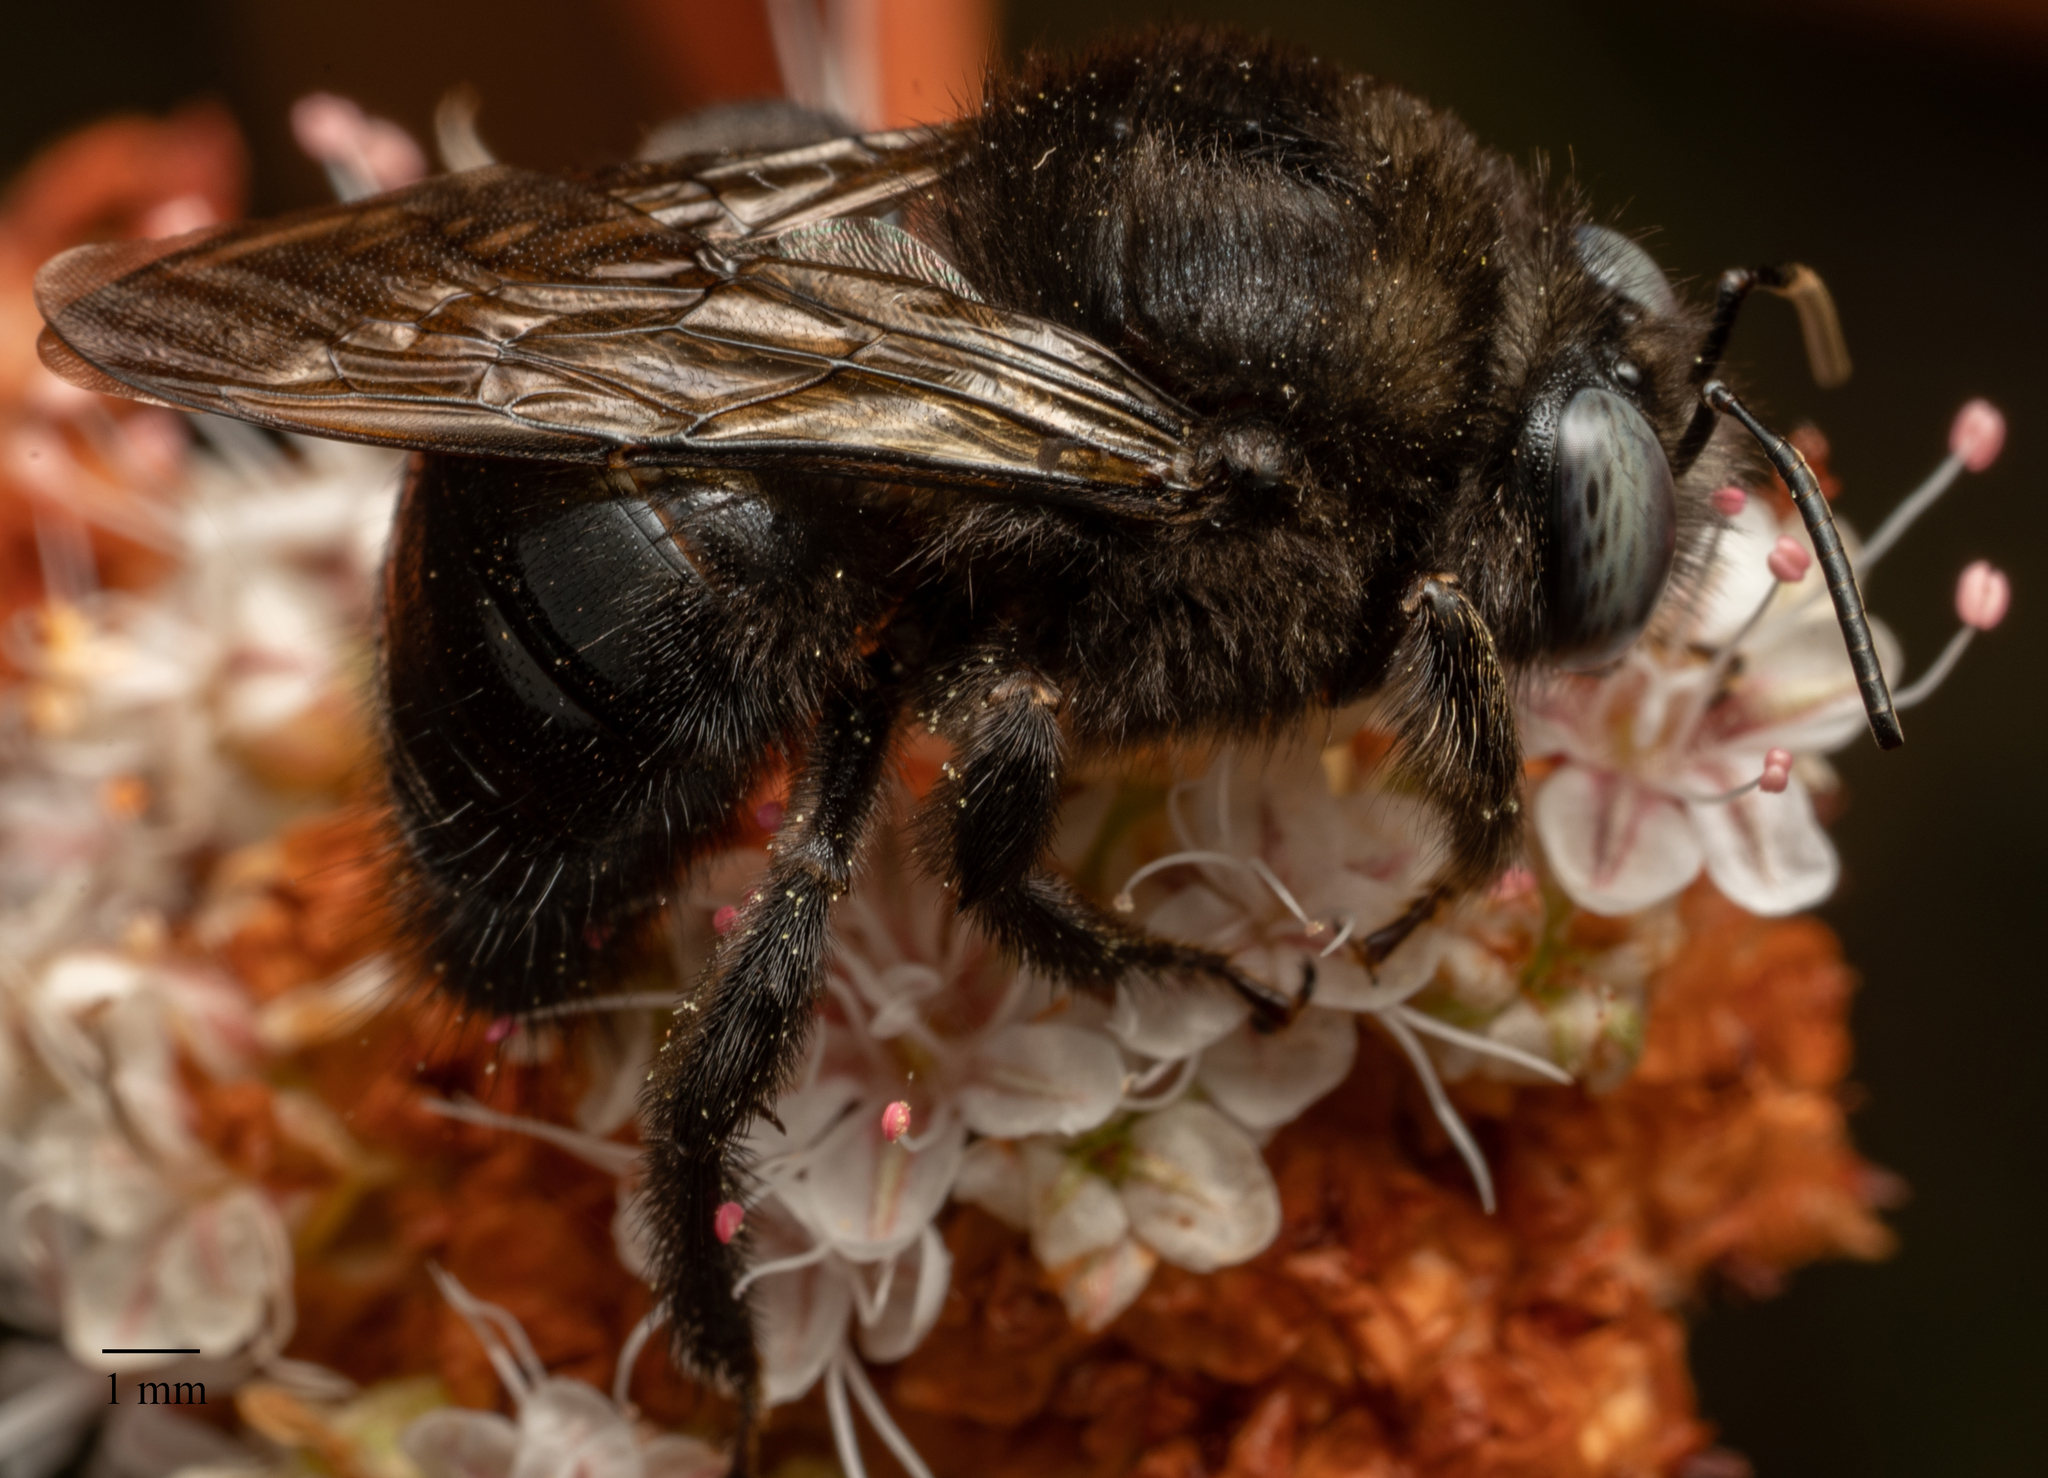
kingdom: Animalia
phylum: Arthropoda
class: Insecta
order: Hymenoptera
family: Apidae
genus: Xylocopa
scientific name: Xylocopa tabaniformis
